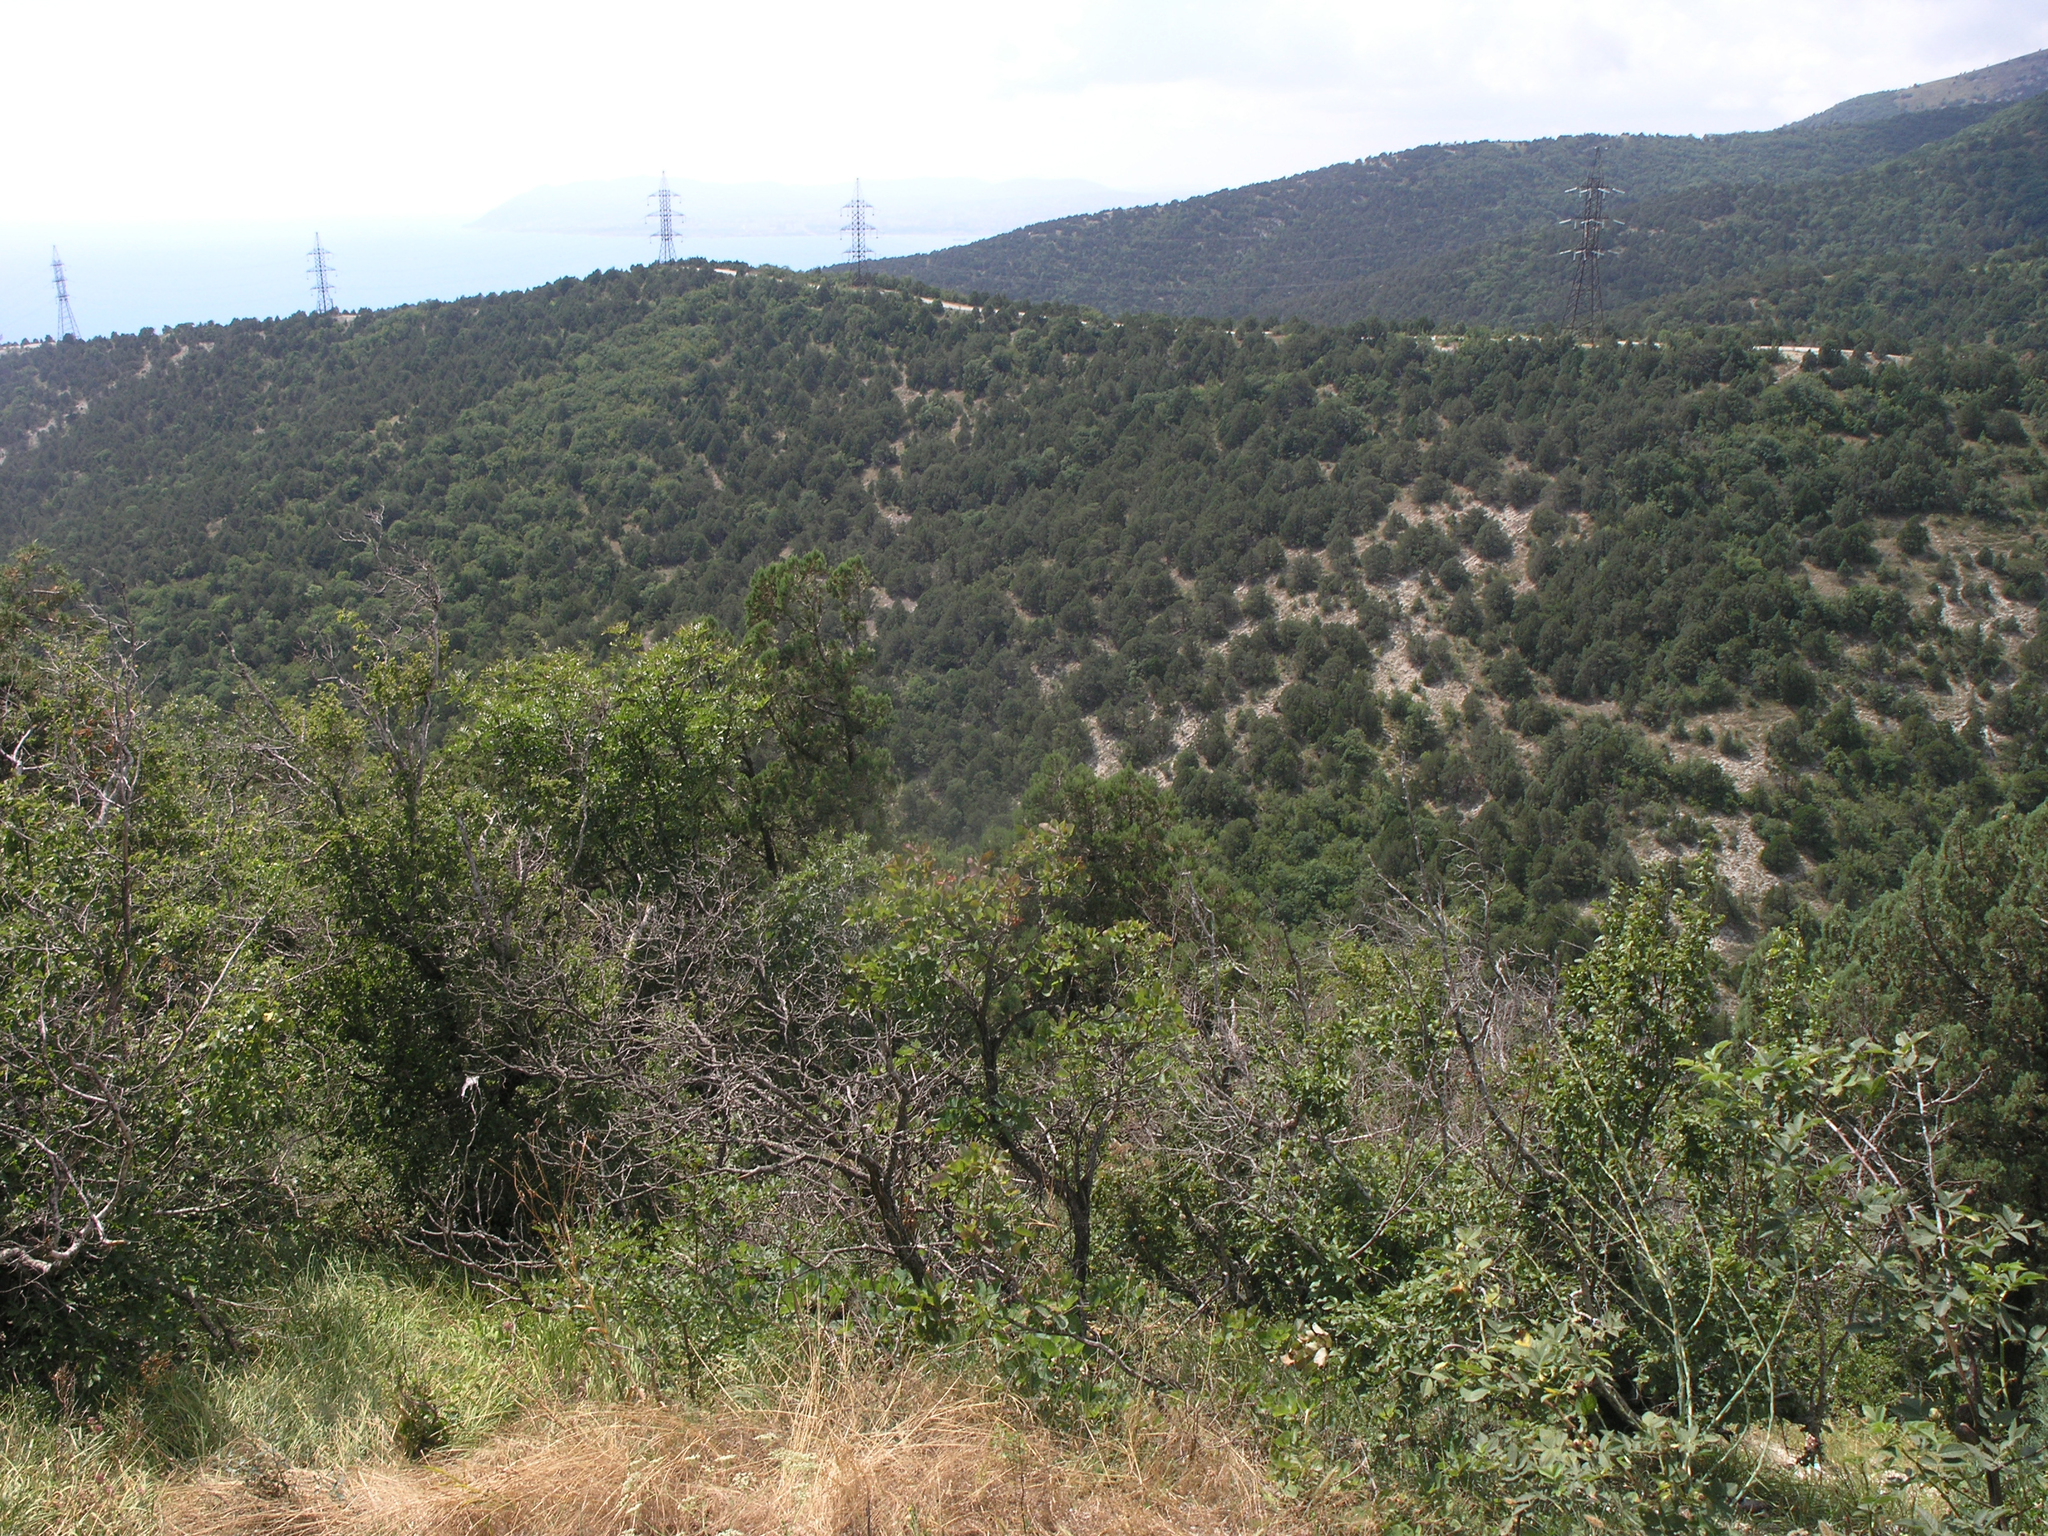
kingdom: Plantae
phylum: Tracheophyta
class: Magnoliopsida
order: Sapindales
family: Anacardiaceae
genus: Cotinus
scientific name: Cotinus coggygria
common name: Smoke-tree
